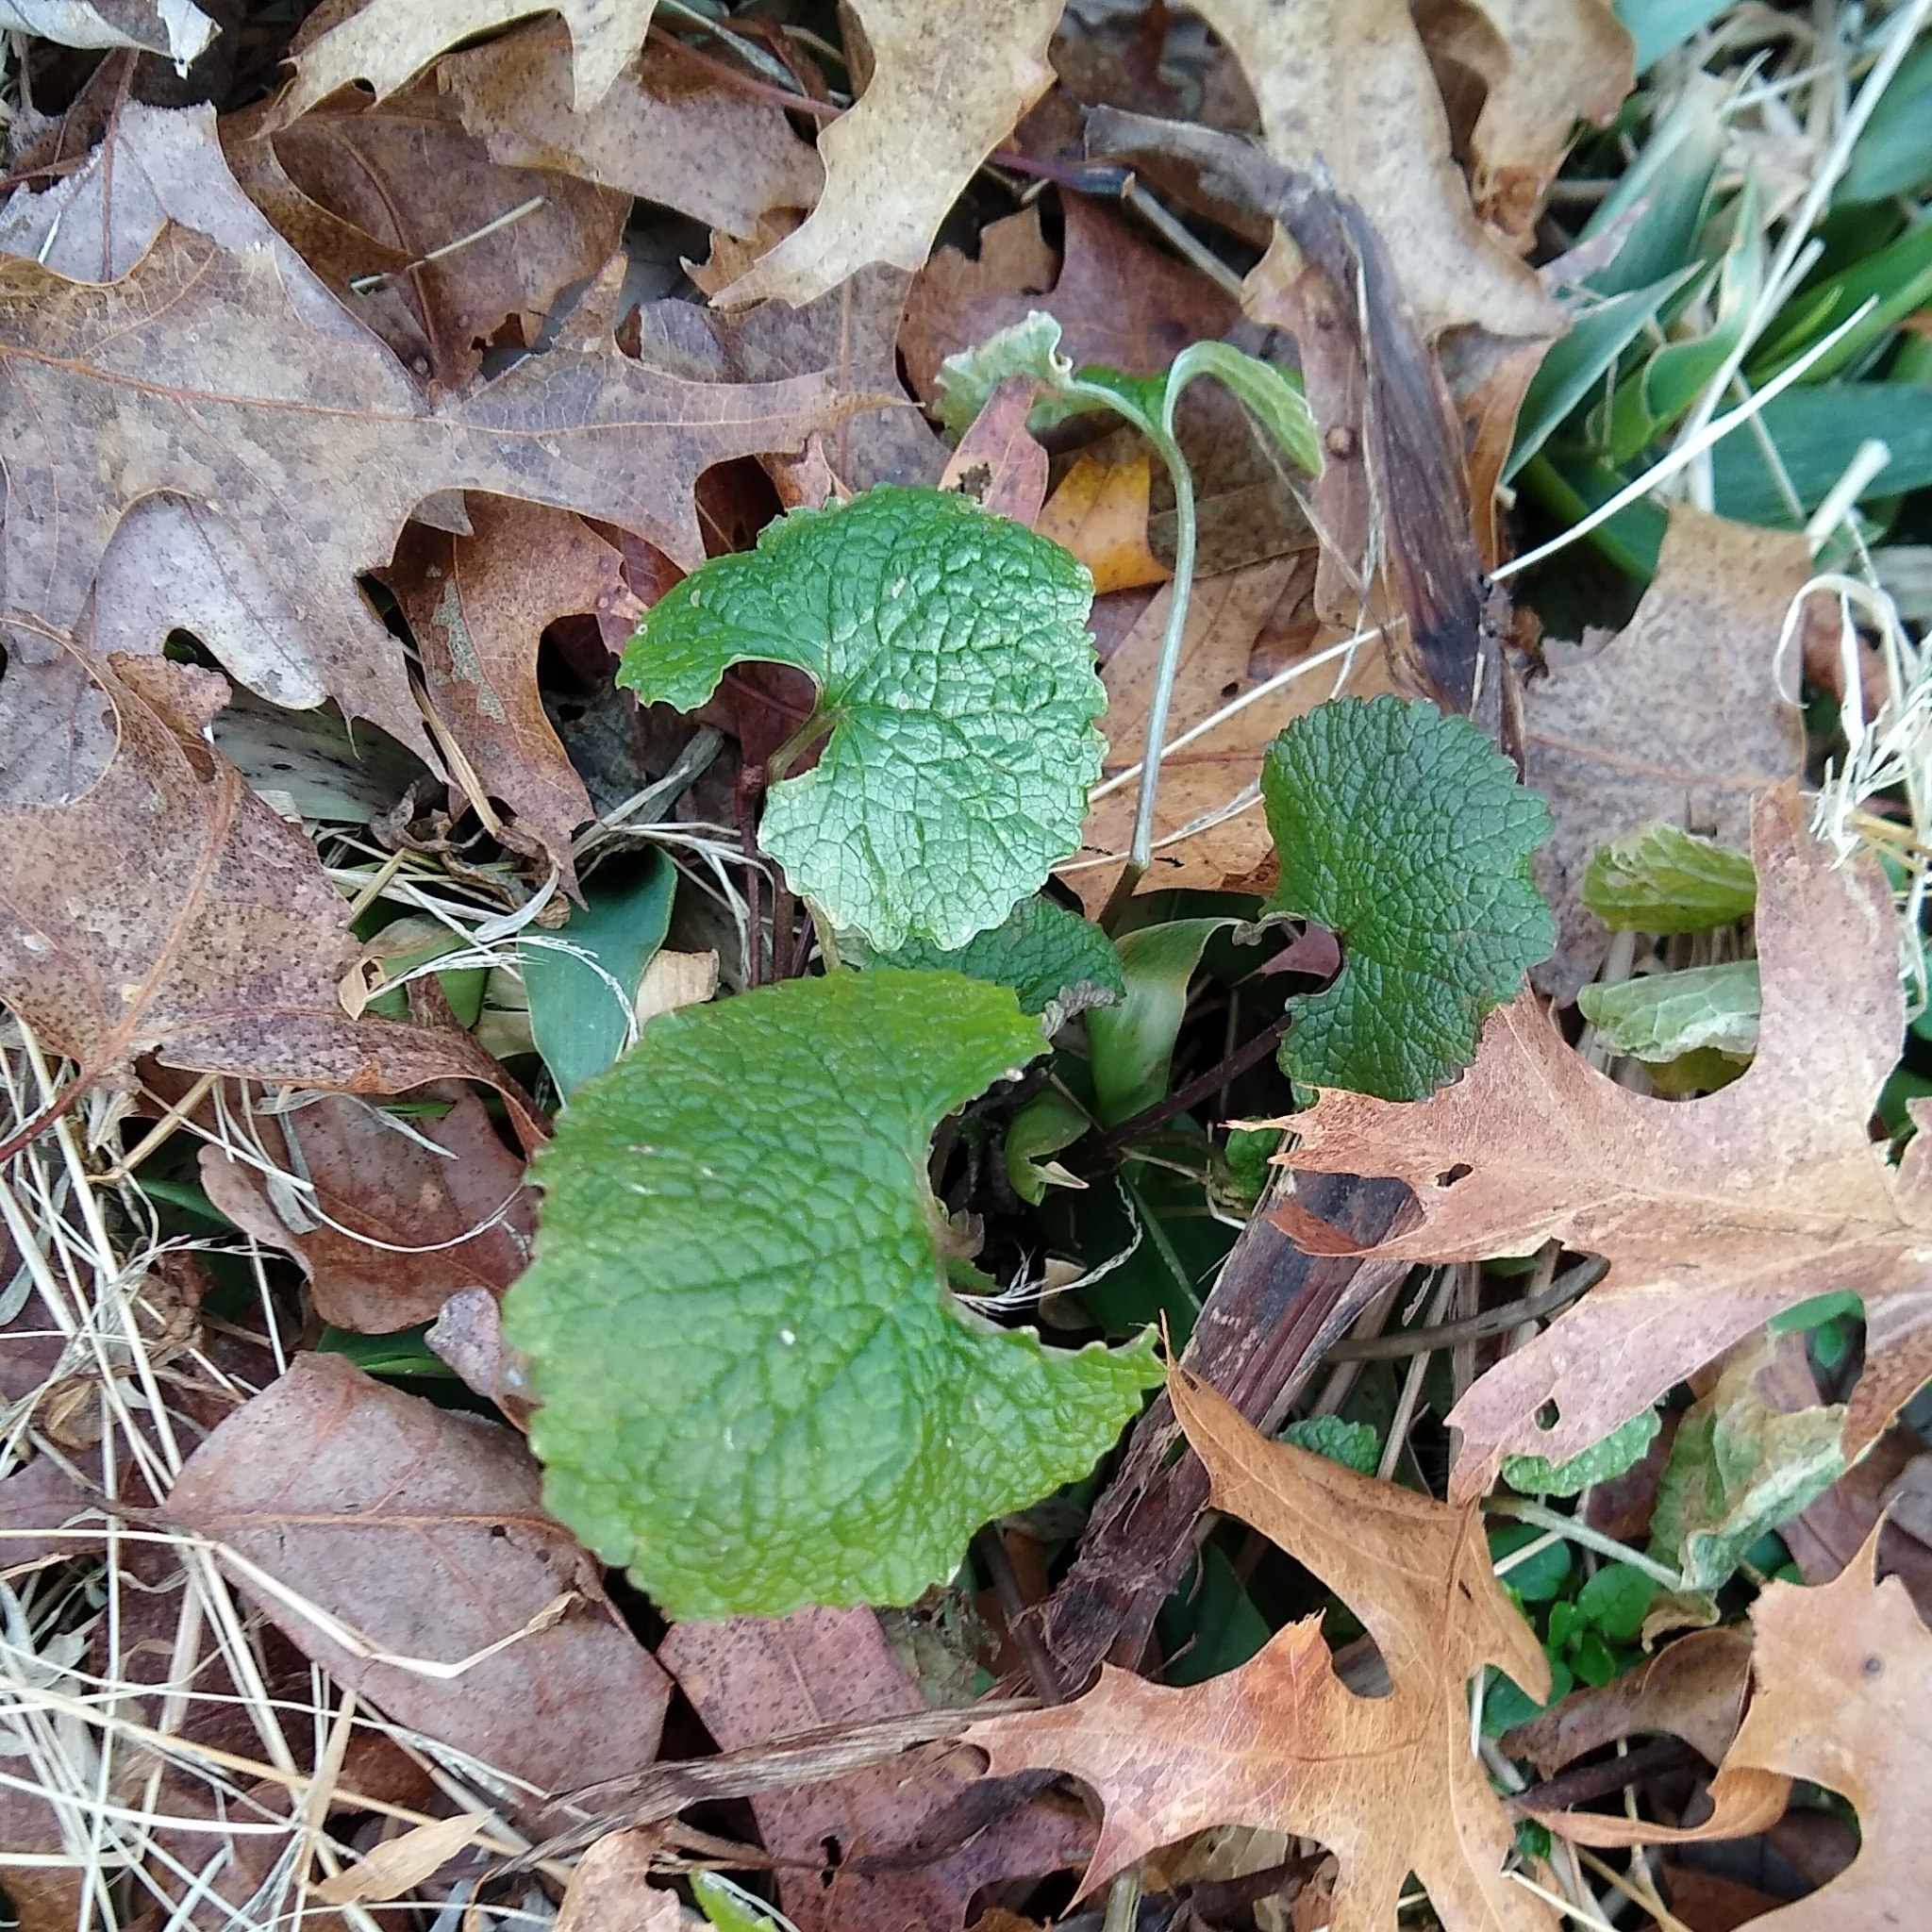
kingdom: Plantae
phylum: Tracheophyta
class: Magnoliopsida
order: Brassicales
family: Brassicaceae
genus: Alliaria
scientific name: Alliaria petiolata
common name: Garlic mustard
